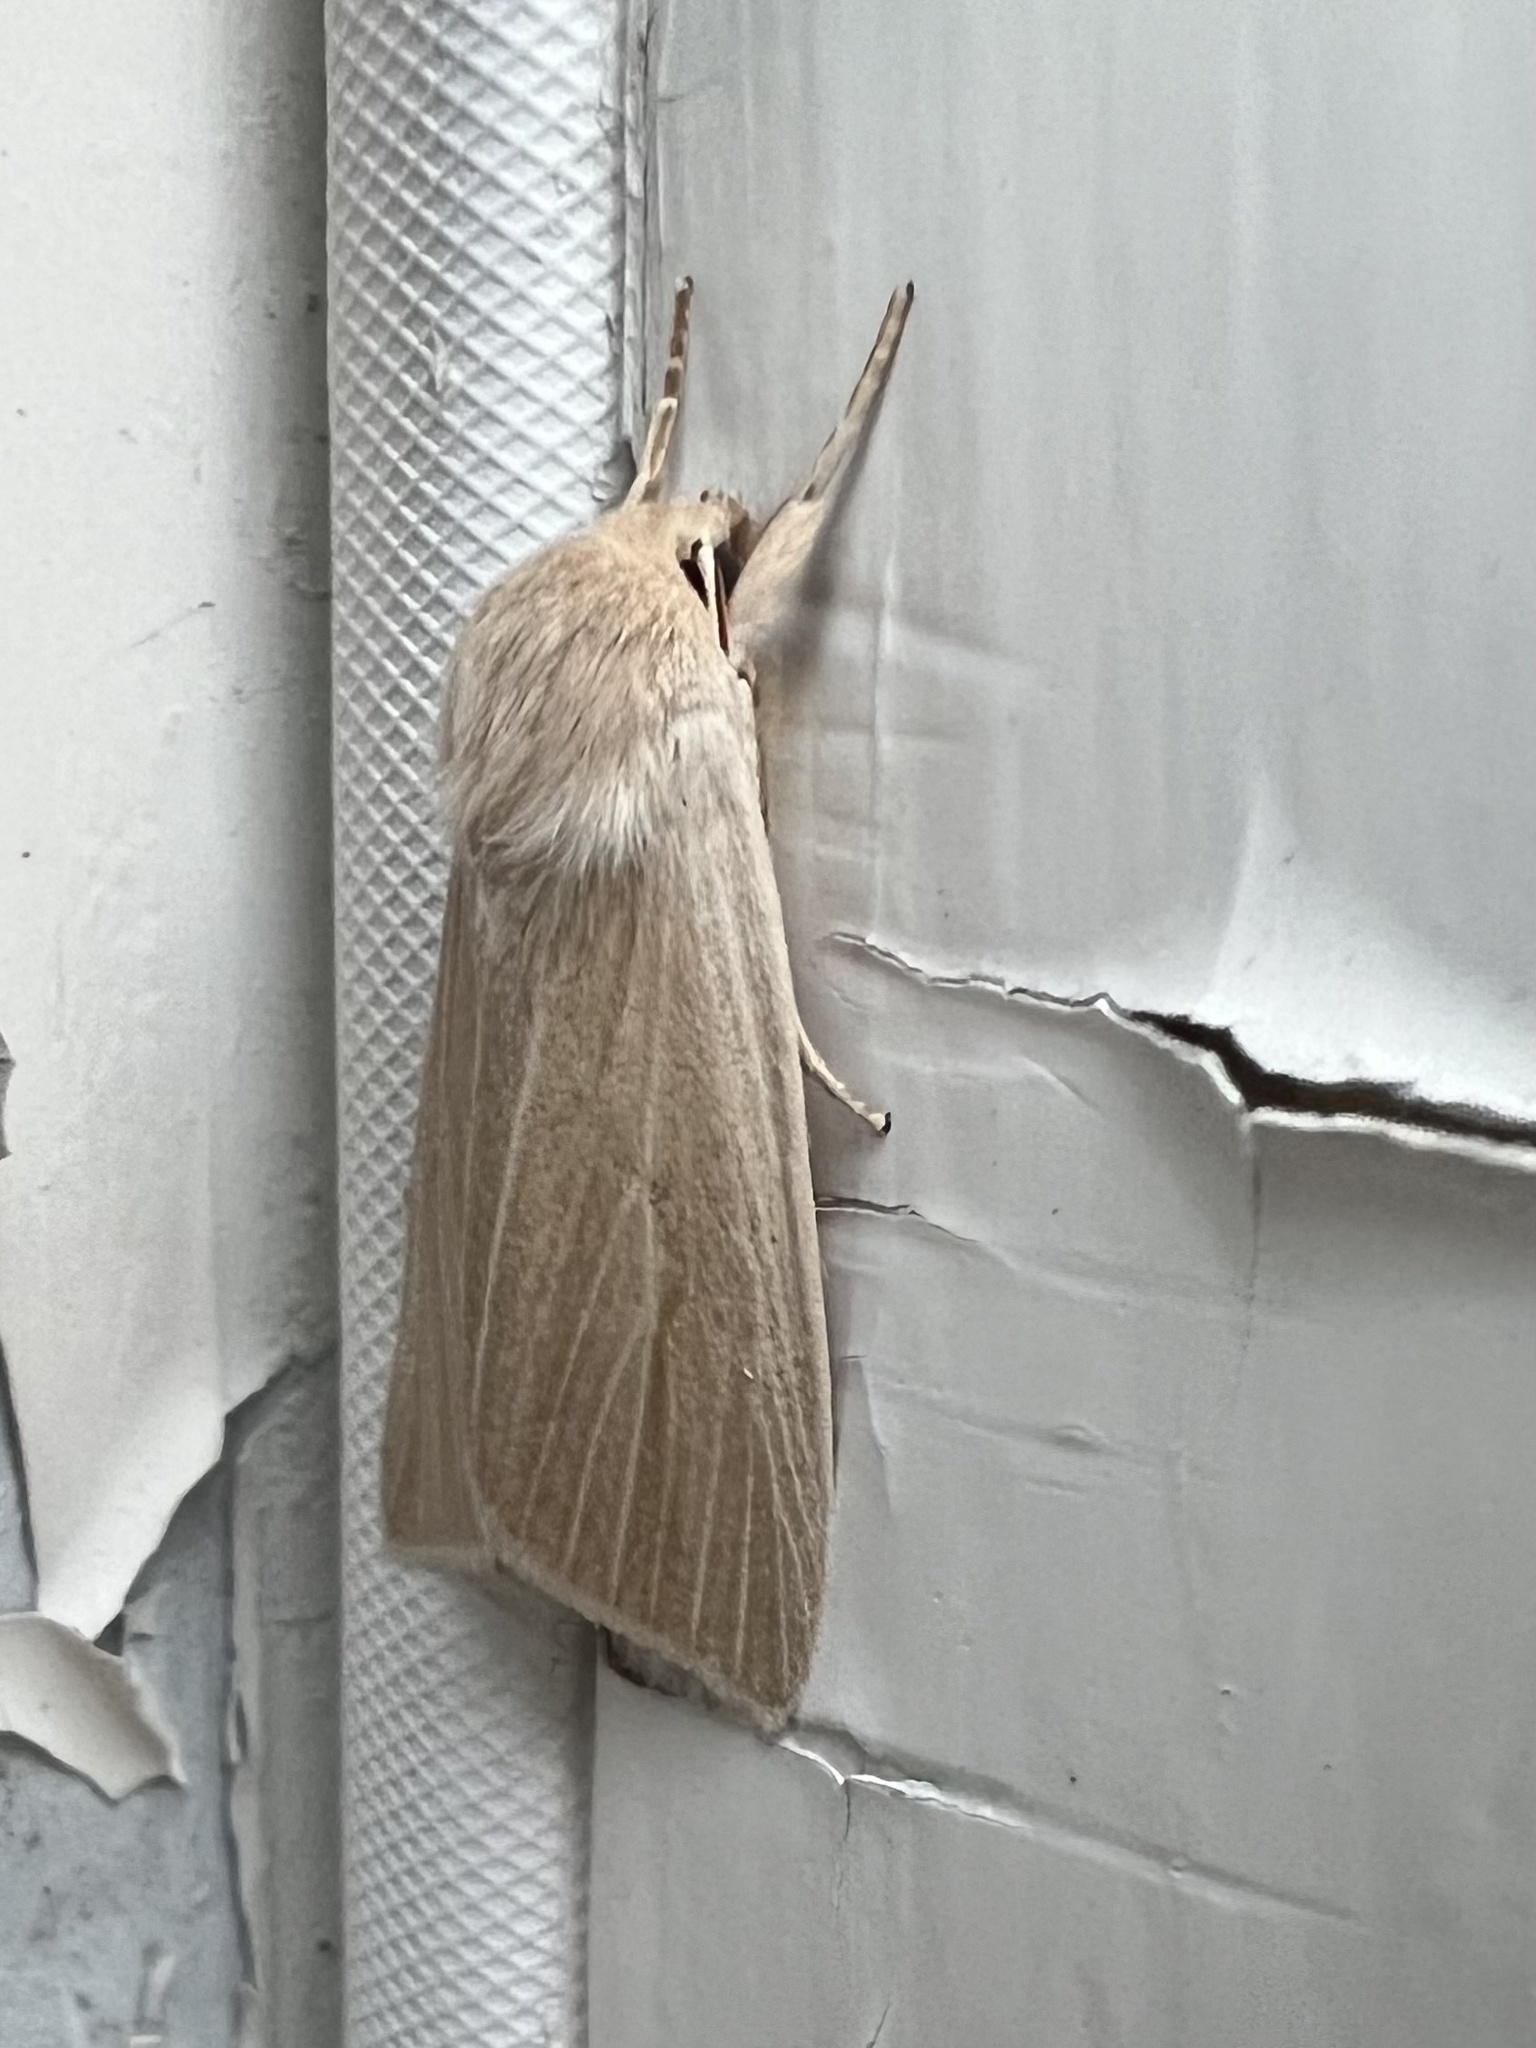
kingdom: Animalia
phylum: Arthropoda
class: Insecta
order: Lepidoptera
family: Noctuidae
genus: Acronicta
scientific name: Acronicta insularis
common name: Henry's marsh moth
